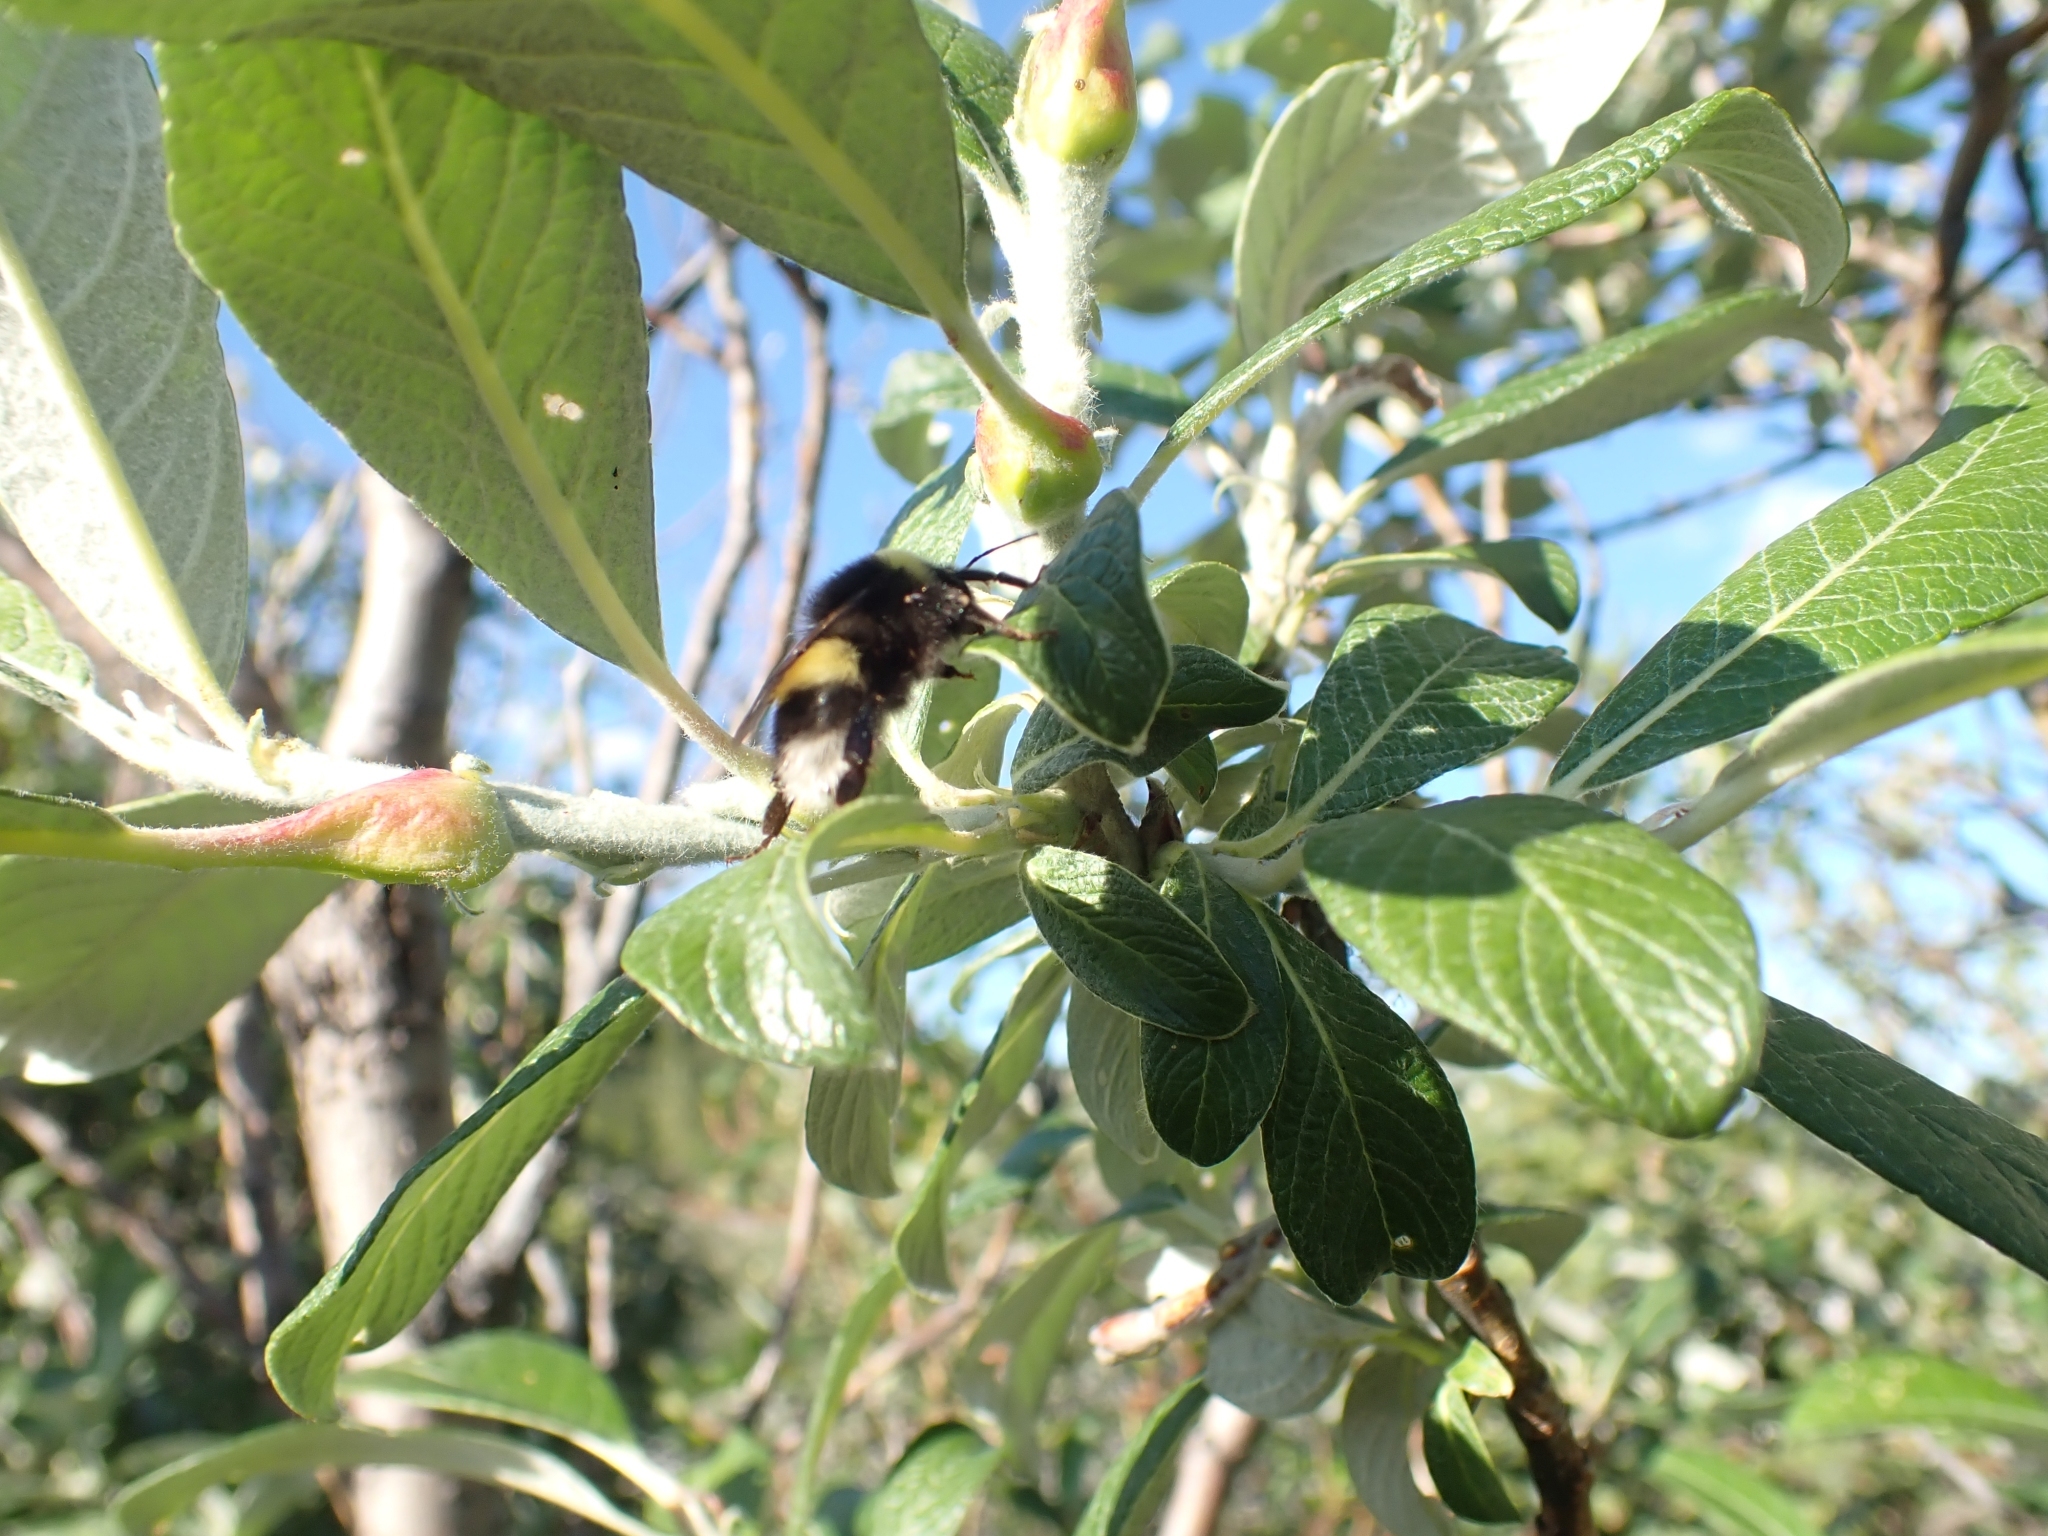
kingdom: Animalia
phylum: Arthropoda
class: Insecta
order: Hymenoptera
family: Apidae
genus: Bombus
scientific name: Bombus cryptarum
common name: Cryptic bumblebee
